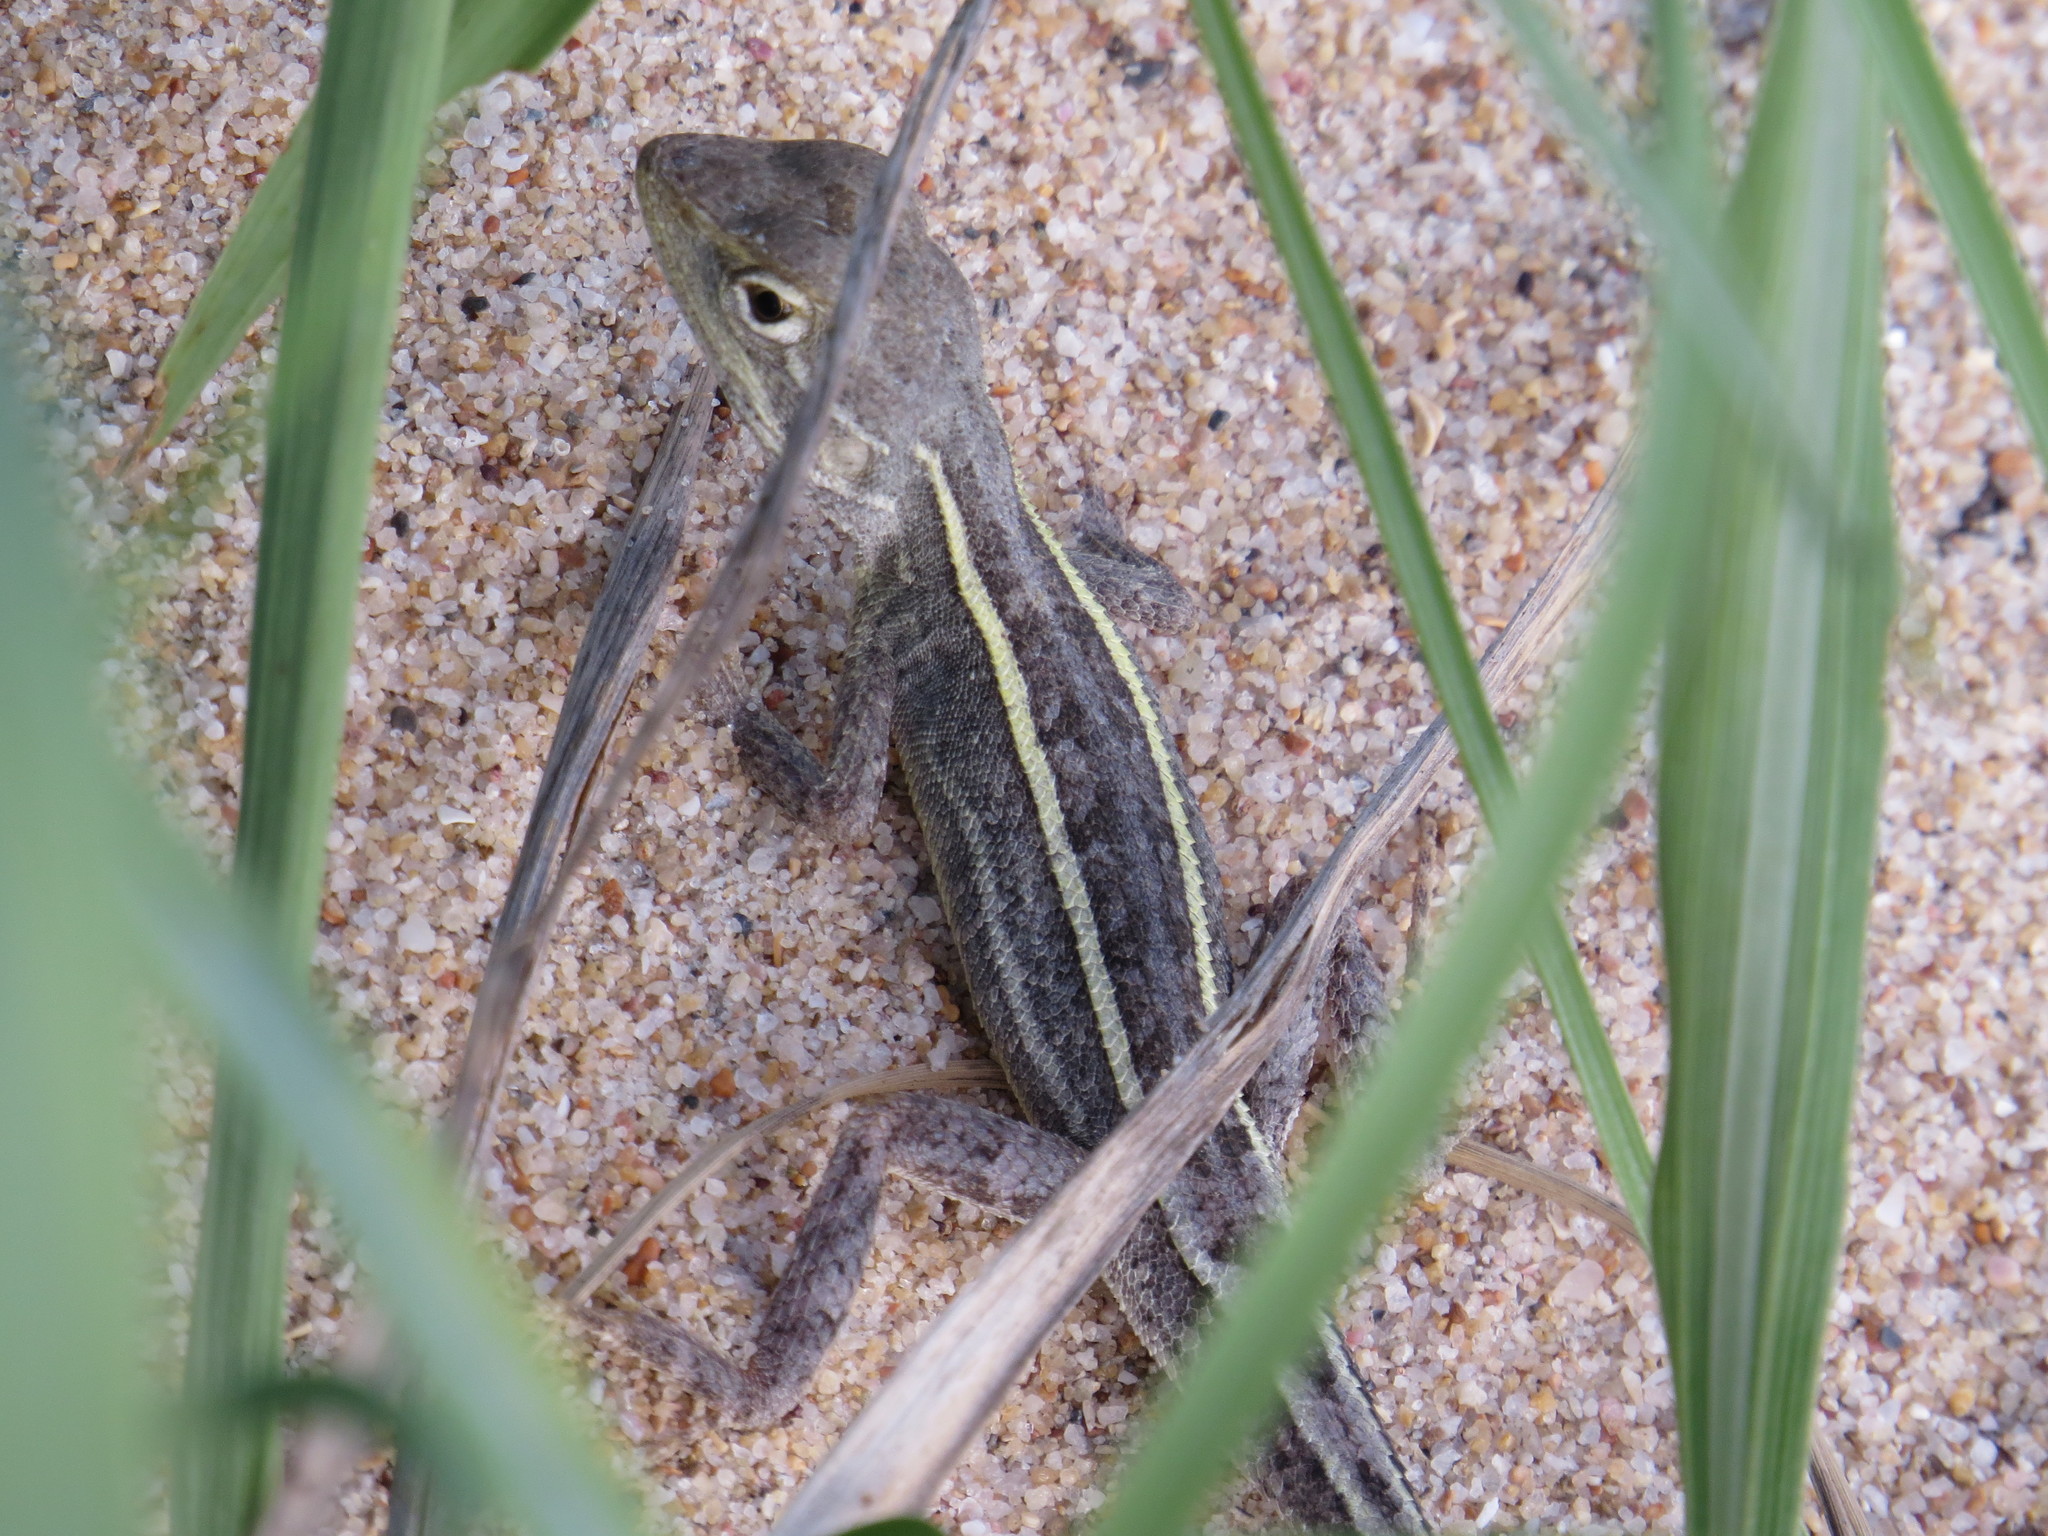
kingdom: Animalia
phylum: Chordata
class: Squamata
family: Agamidae
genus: Diporiphora
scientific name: Diporiphora bilineata
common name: Northern two-line dragon
